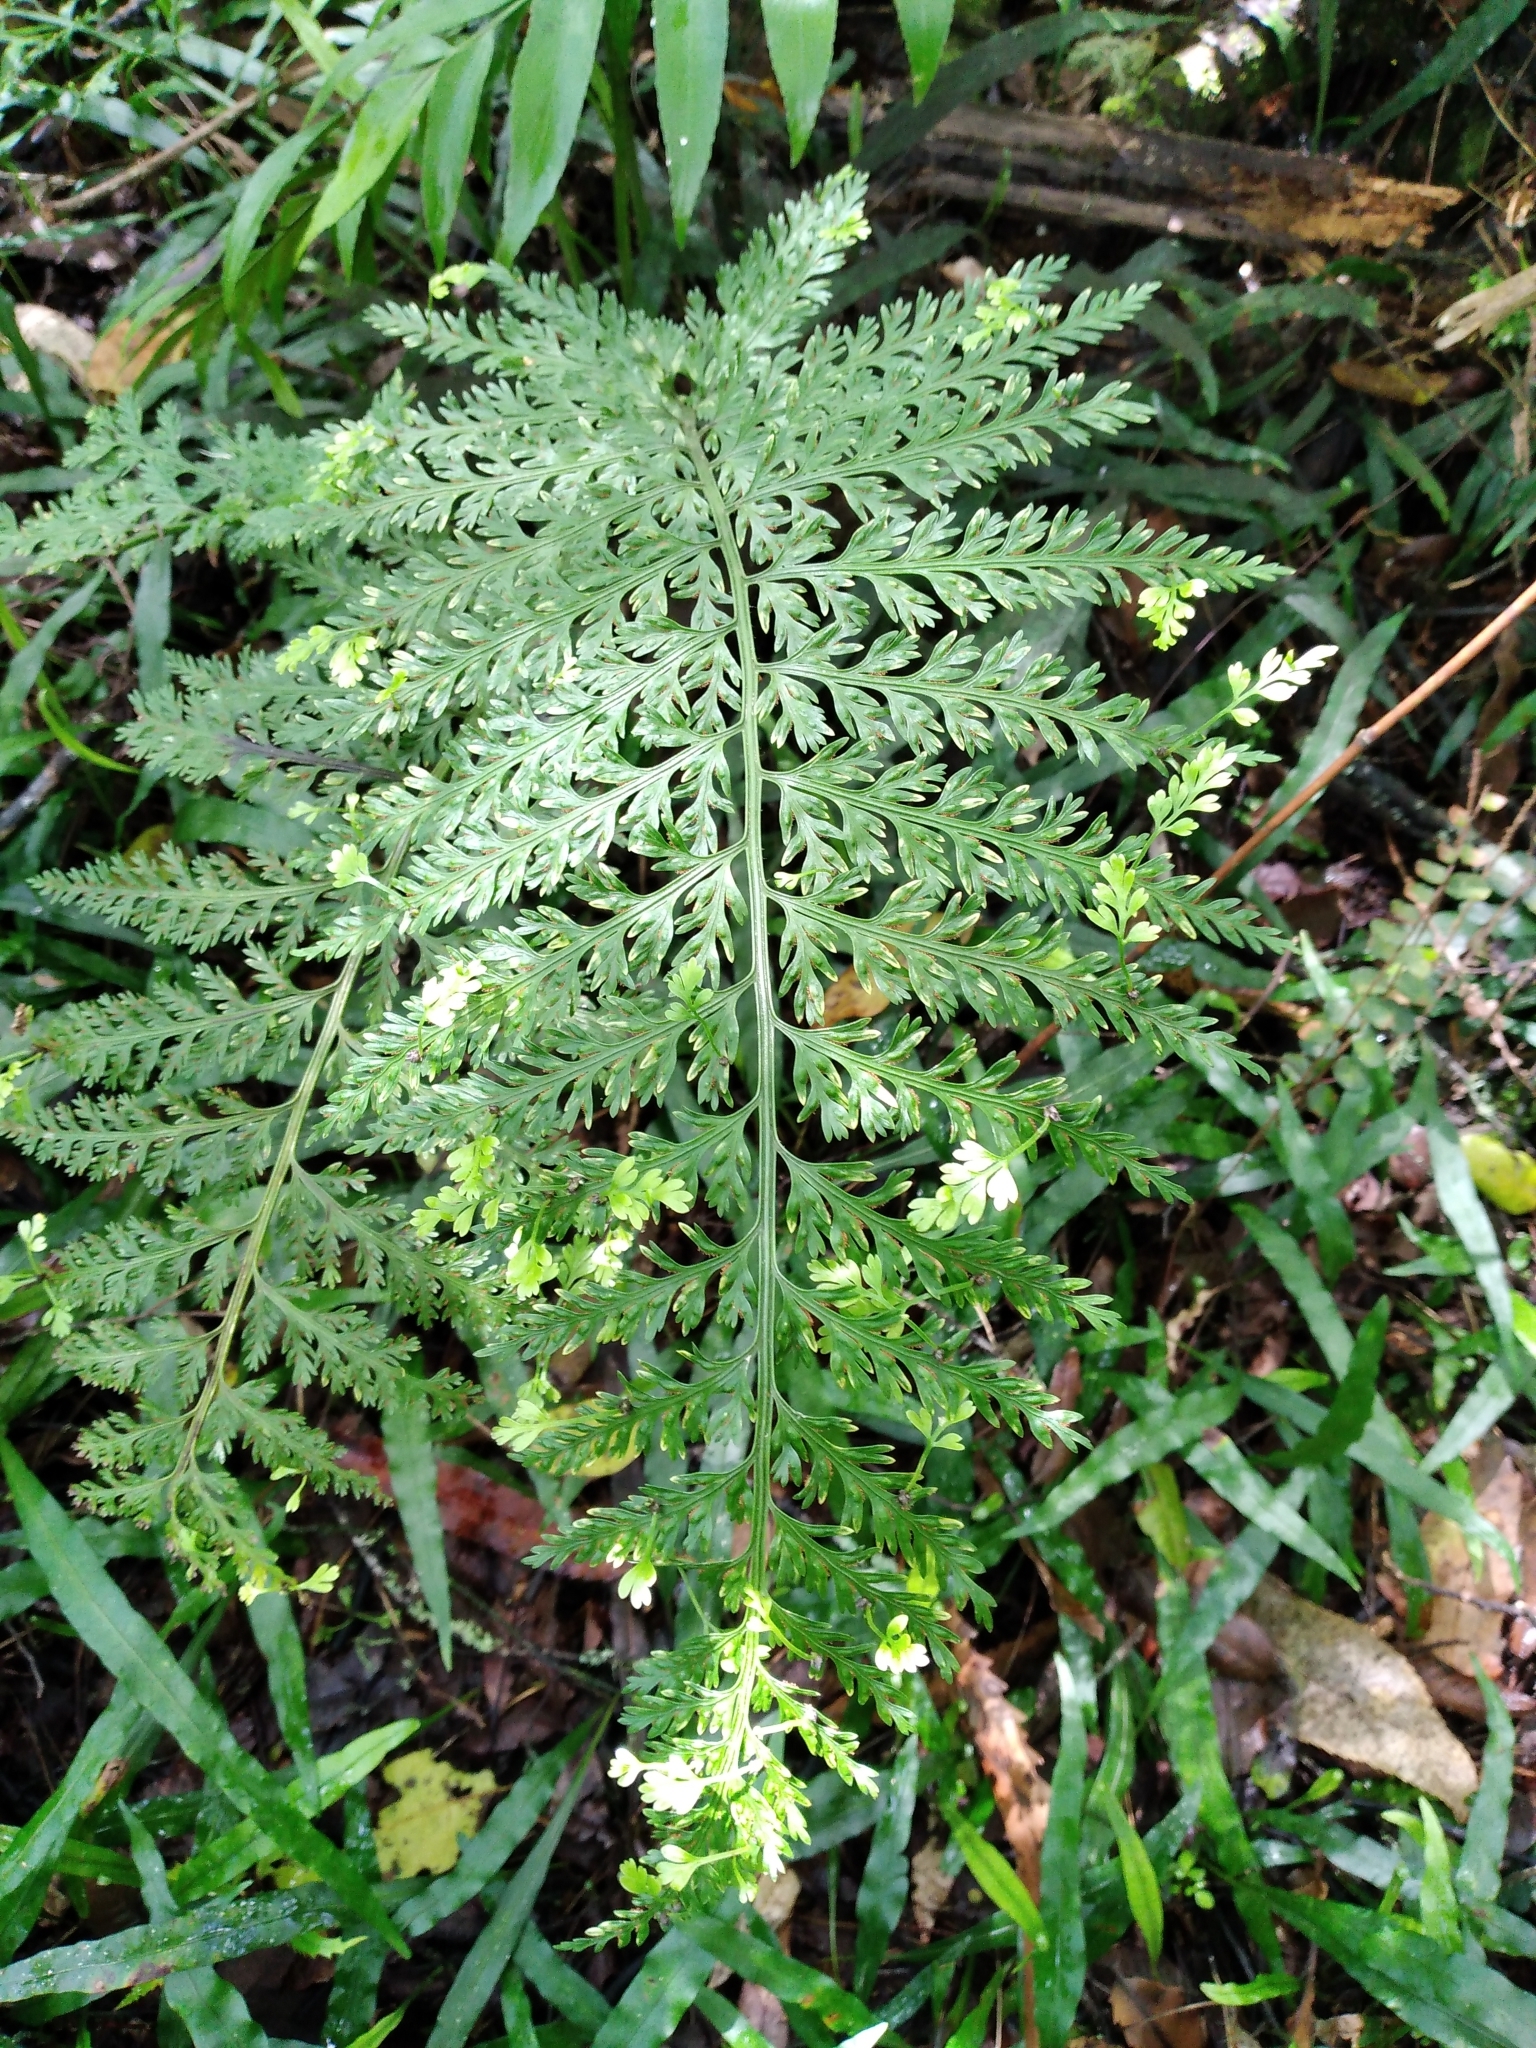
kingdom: Plantae
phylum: Tracheophyta
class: Polypodiopsida
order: Polypodiales
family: Aspleniaceae
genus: Asplenium
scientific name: Asplenium
